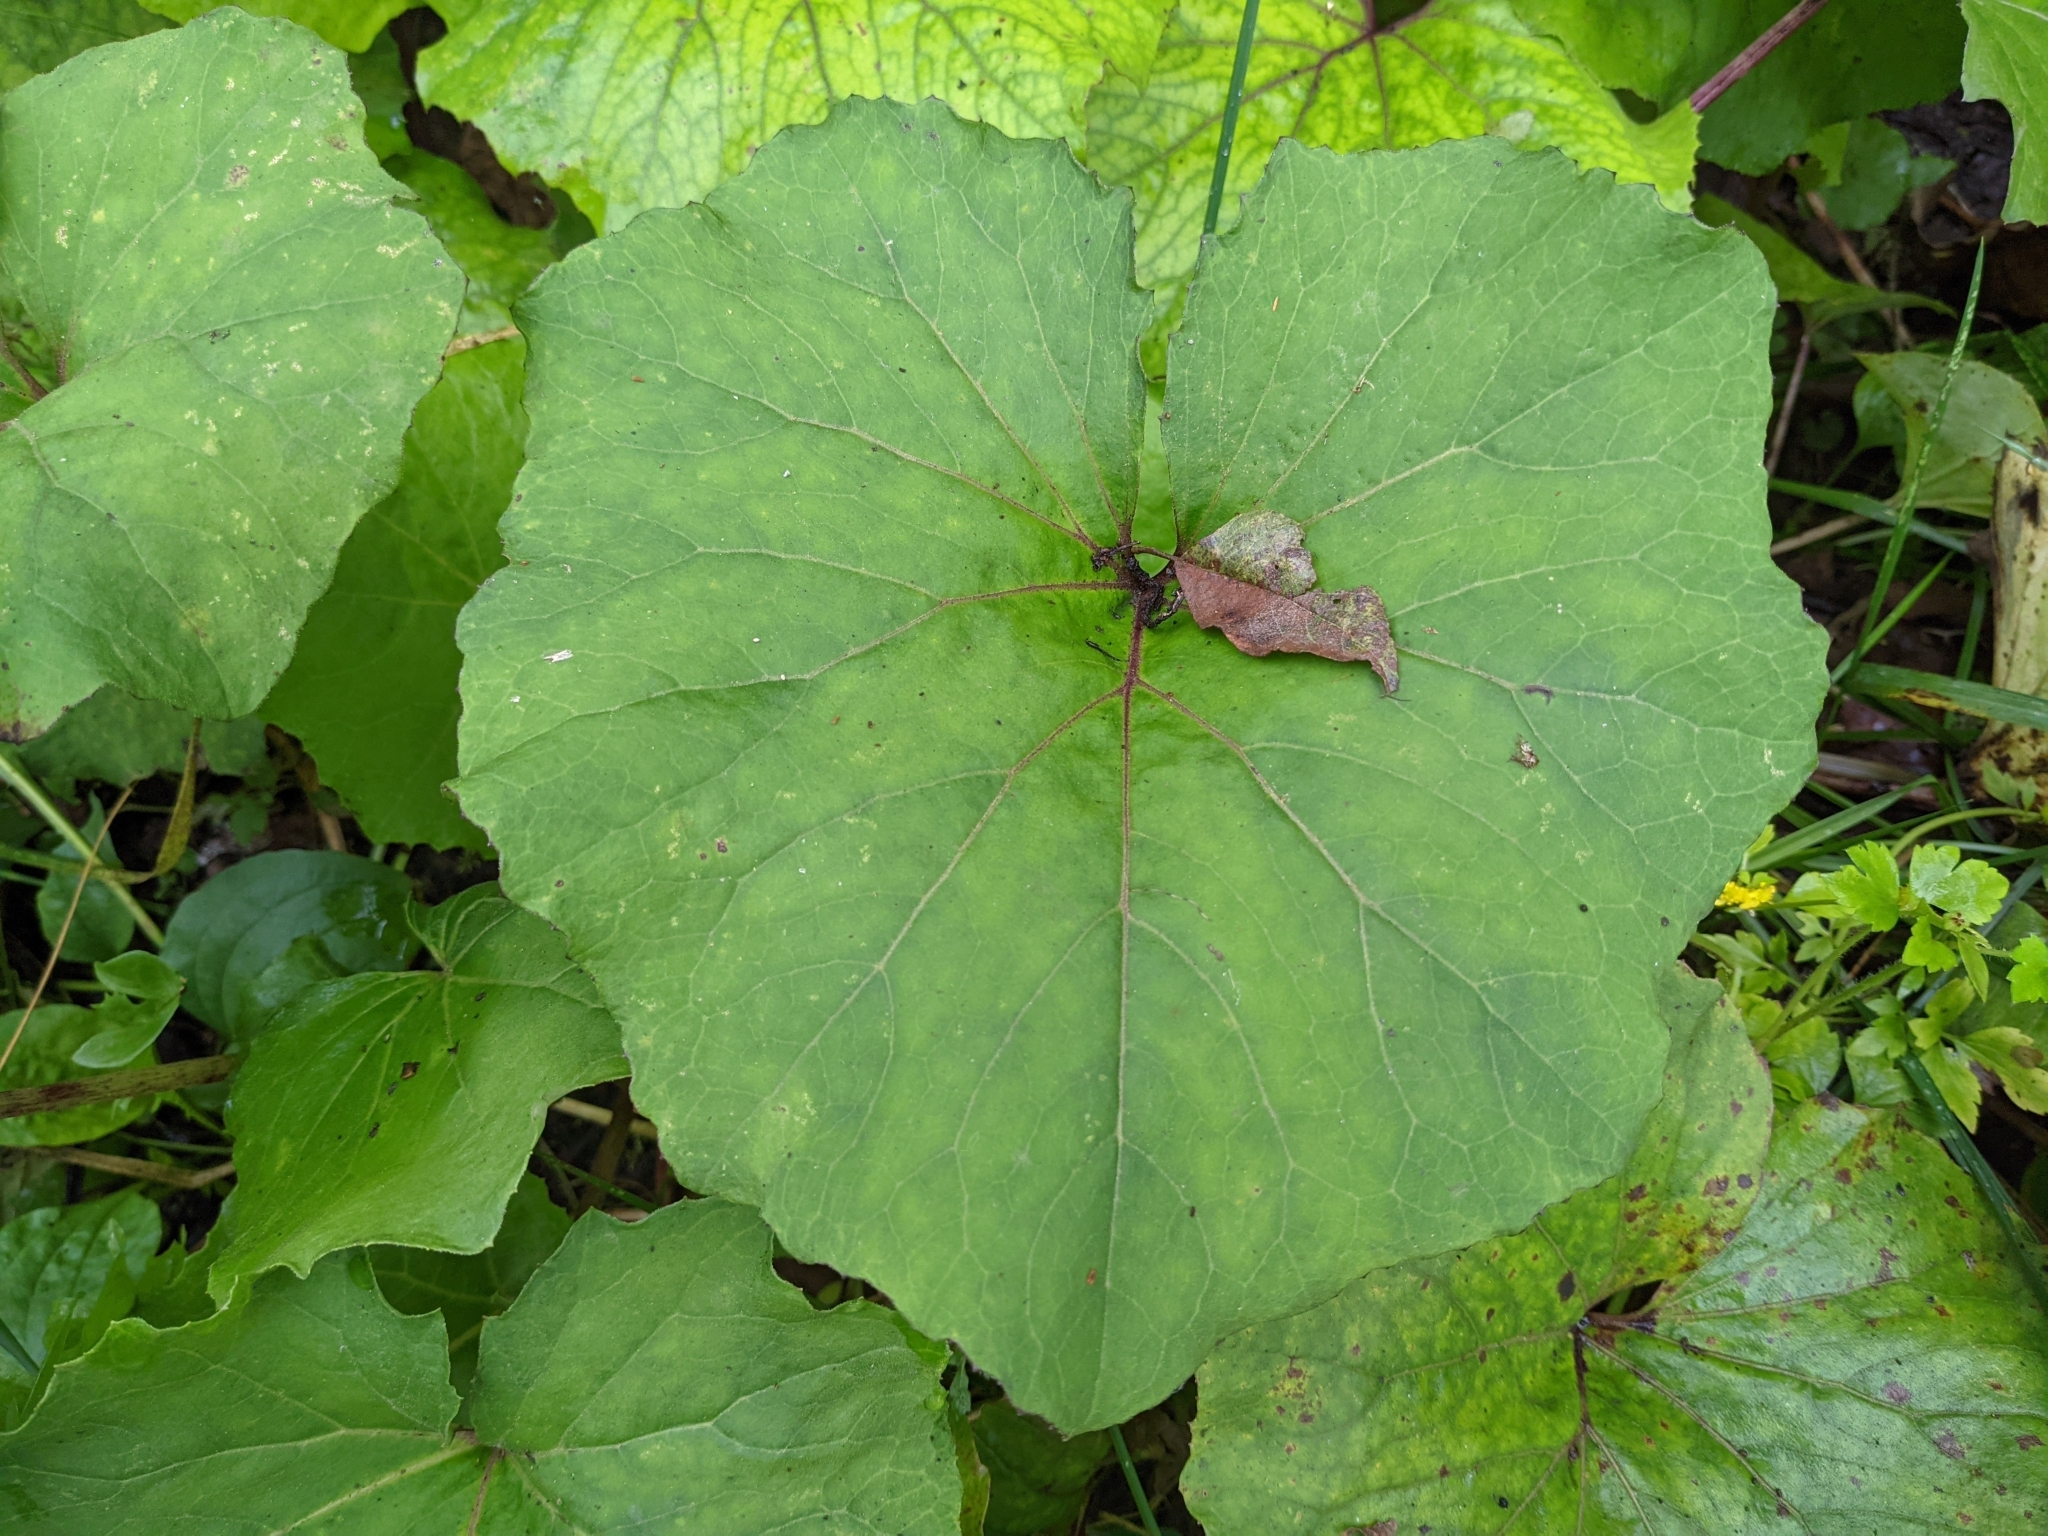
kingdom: Plantae
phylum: Tracheophyta
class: Magnoliopsida
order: Asterales
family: Asteraceae
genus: Petasites
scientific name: Petasites formosanus
